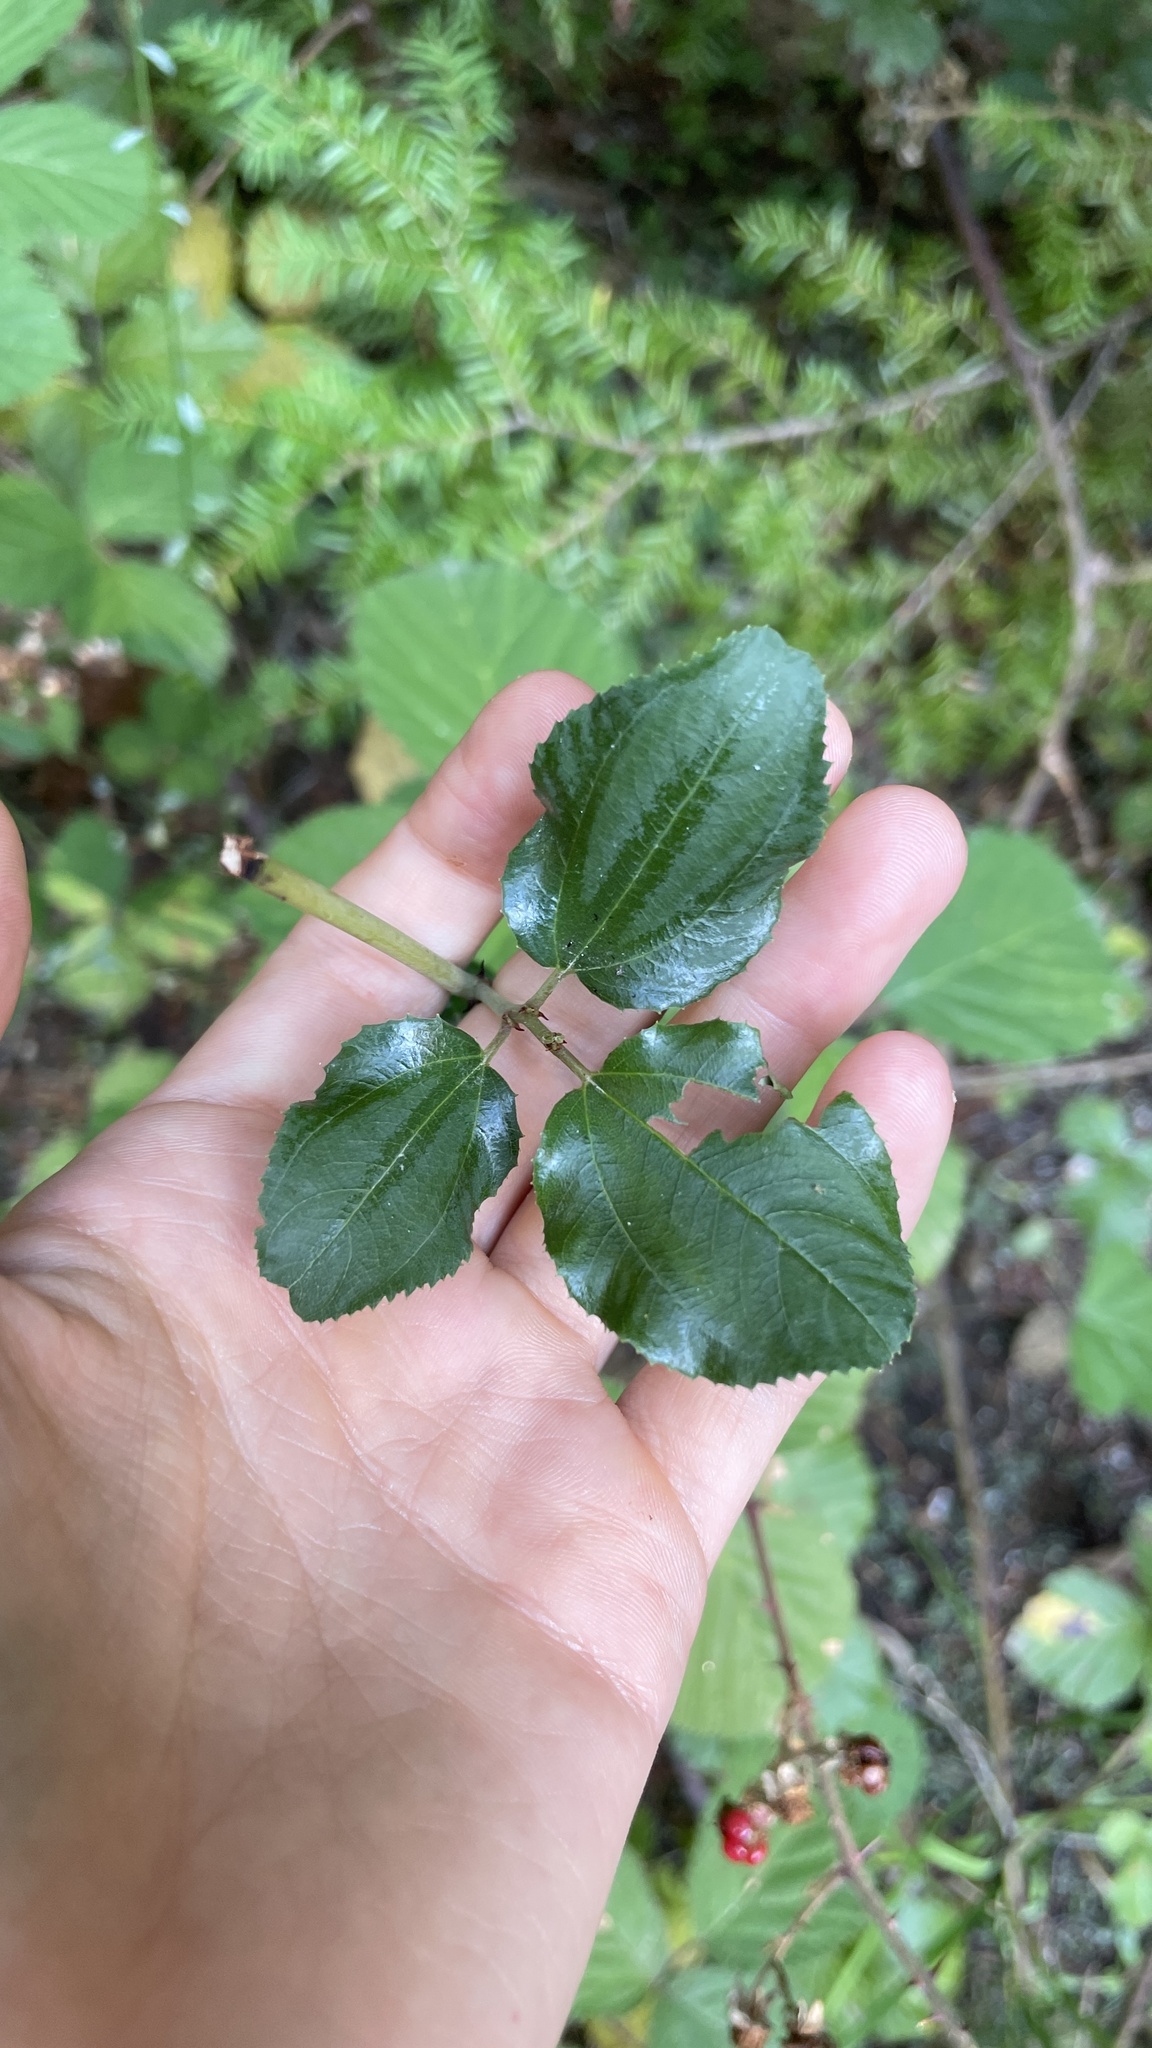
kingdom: Plantae
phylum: Tracheophyta
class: Magnoliopsida
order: Rosales
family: Rhamnaceae
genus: Ceanothus
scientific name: Ceanothus velutinus
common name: Snowbrush
